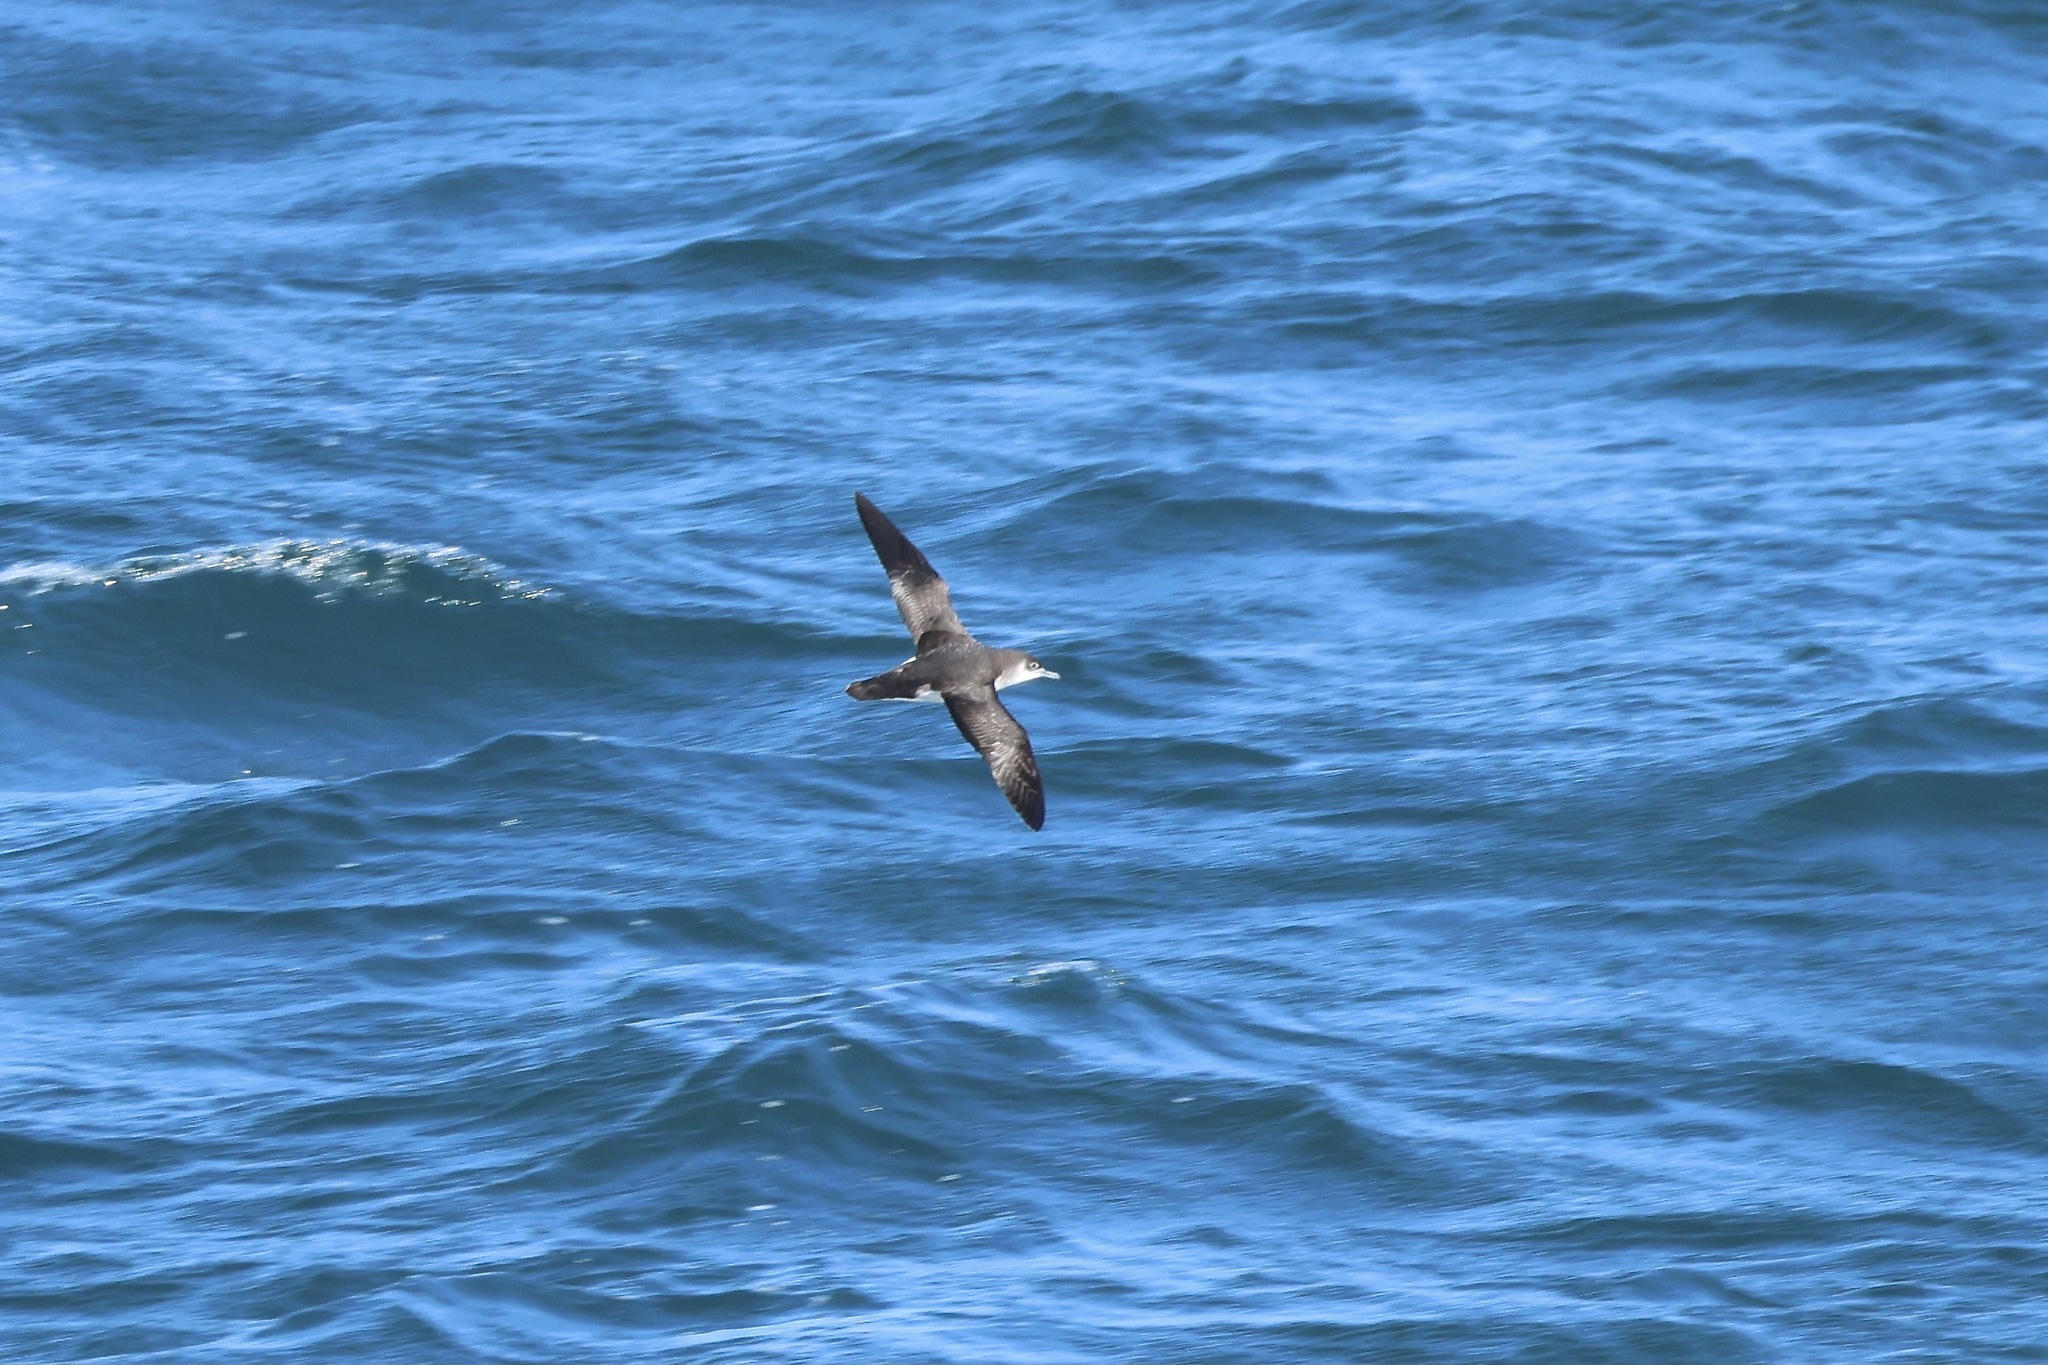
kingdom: Animalia
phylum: Chordata
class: Aves
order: Procellariiformes
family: Procellariidae
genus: Puffinus
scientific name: Puffinus puffinus
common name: Manx shearwater
